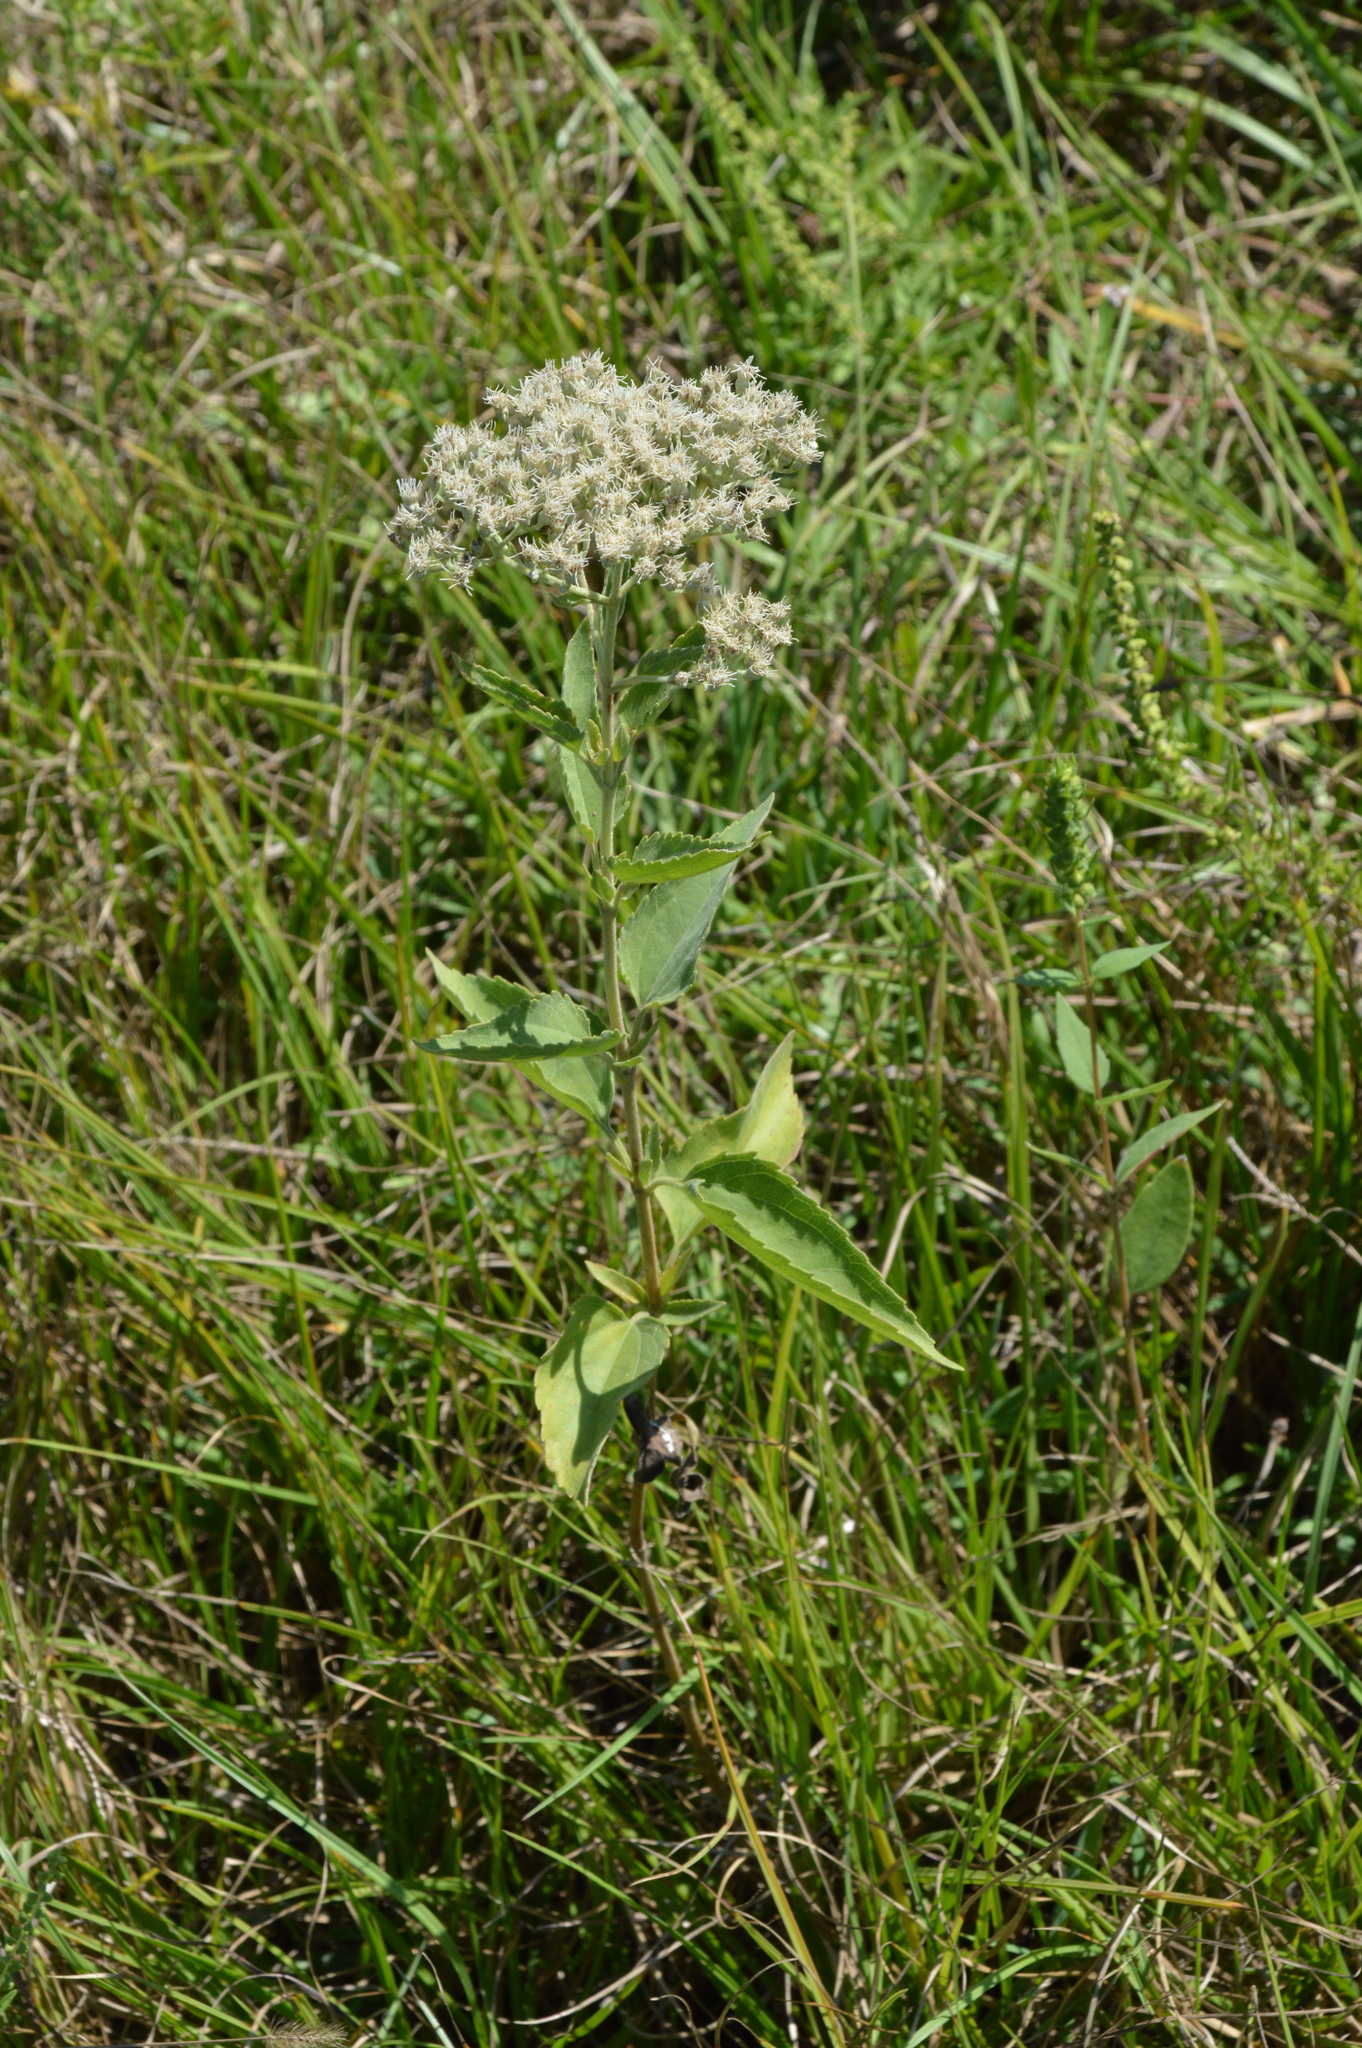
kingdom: Plantae
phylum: Tracheophyta
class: Magnoliopsida
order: Asterales
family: Asteraceae
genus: Eupatorium
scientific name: Eupatorium serotinum
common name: Late boneset
